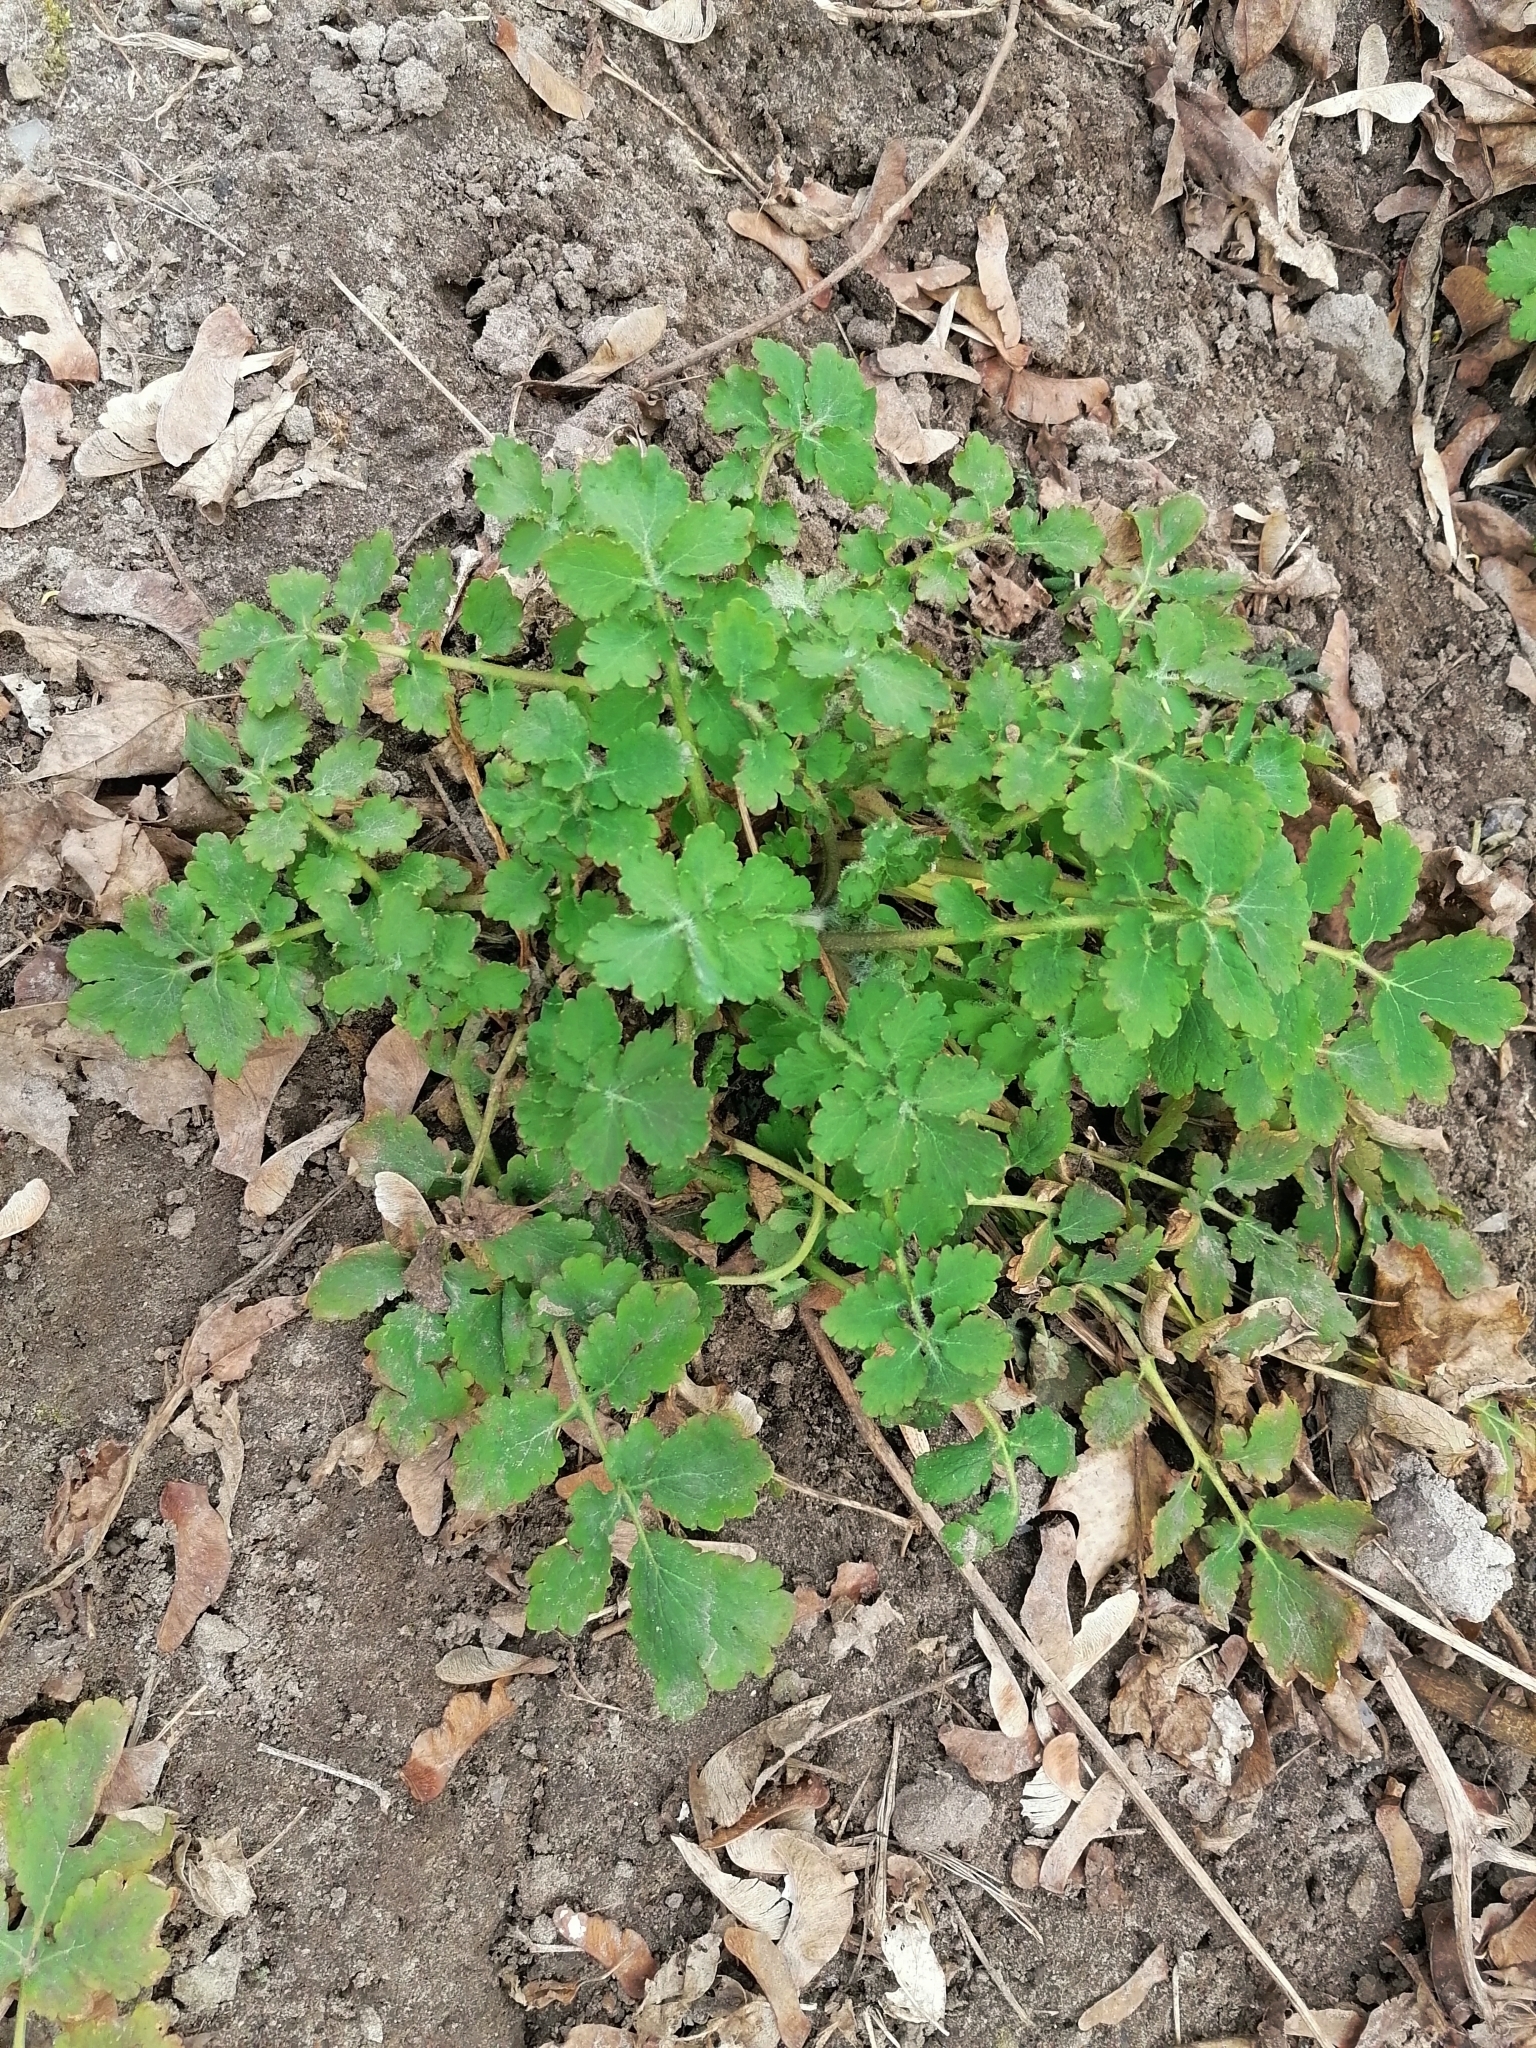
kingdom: Plantae
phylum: Tracheophyta
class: Magnoliopsida
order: Ranunculales
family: Papaveraceae
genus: Chelidonium
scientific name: Chelidonium majus
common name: Greater celandine
